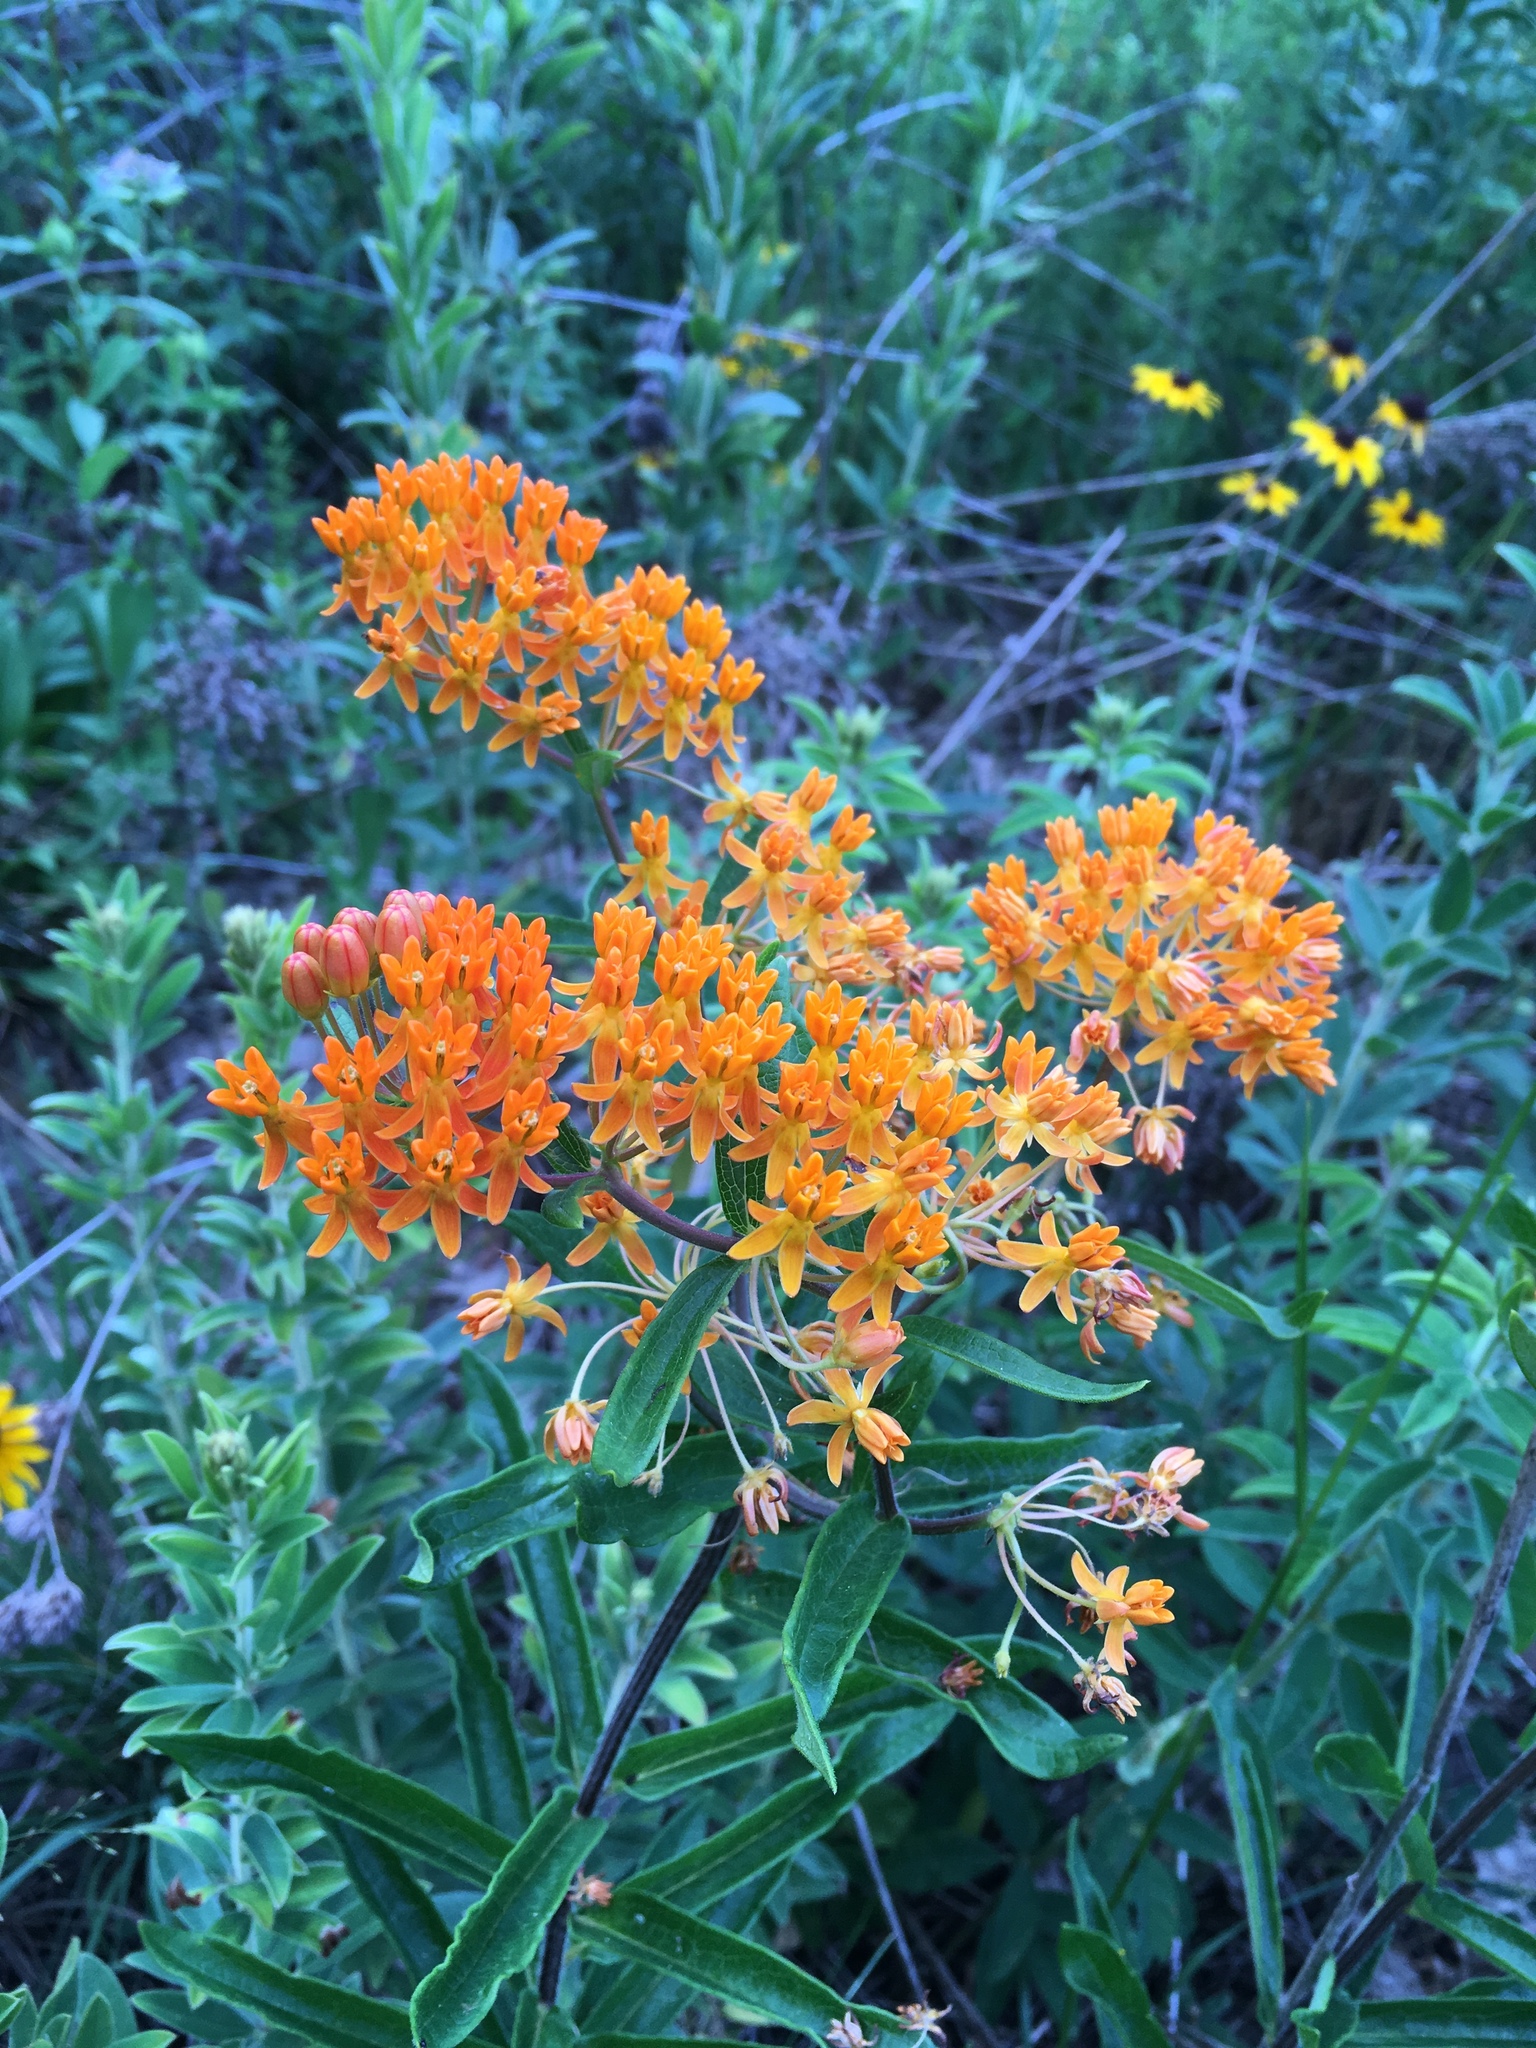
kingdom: Plantae
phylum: Tracheophyta
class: Magnoliopsida
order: Gentianales
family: Apocynaceae
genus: Asclepias
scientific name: Asclepias tuberosa
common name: Butterfly milkweed
